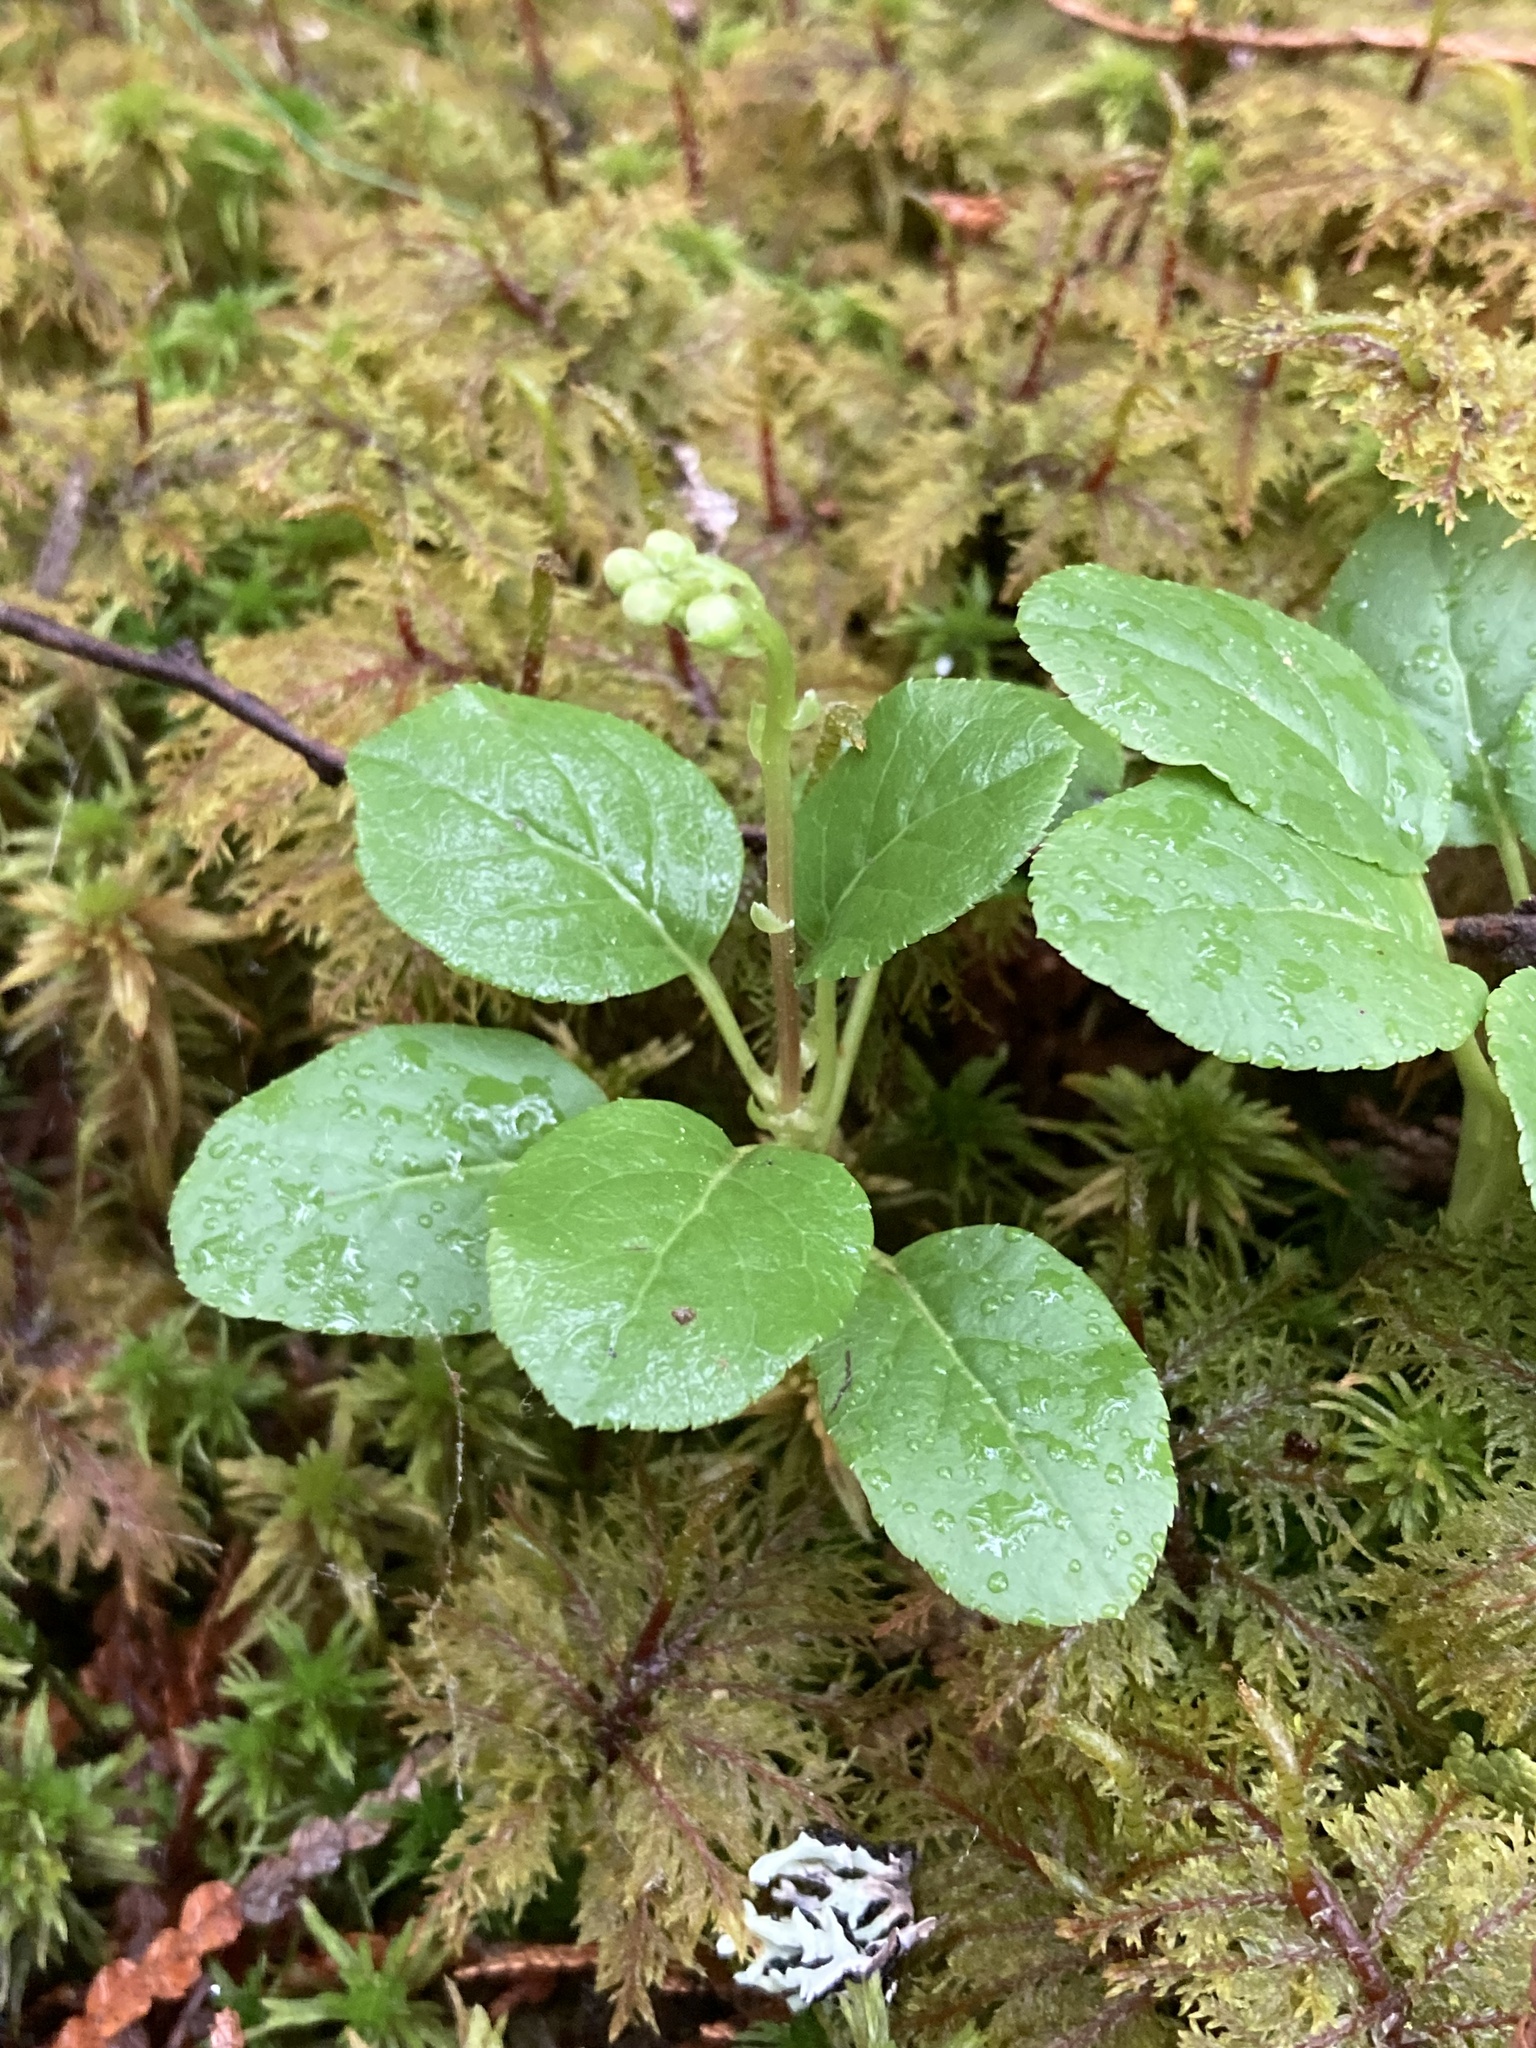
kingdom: Plantae
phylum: Tracheophyta
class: Magnoliopsida
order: Ericales
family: Ericaceae
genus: Orthilia
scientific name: Orthilia secunda
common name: One-sided orthilia
